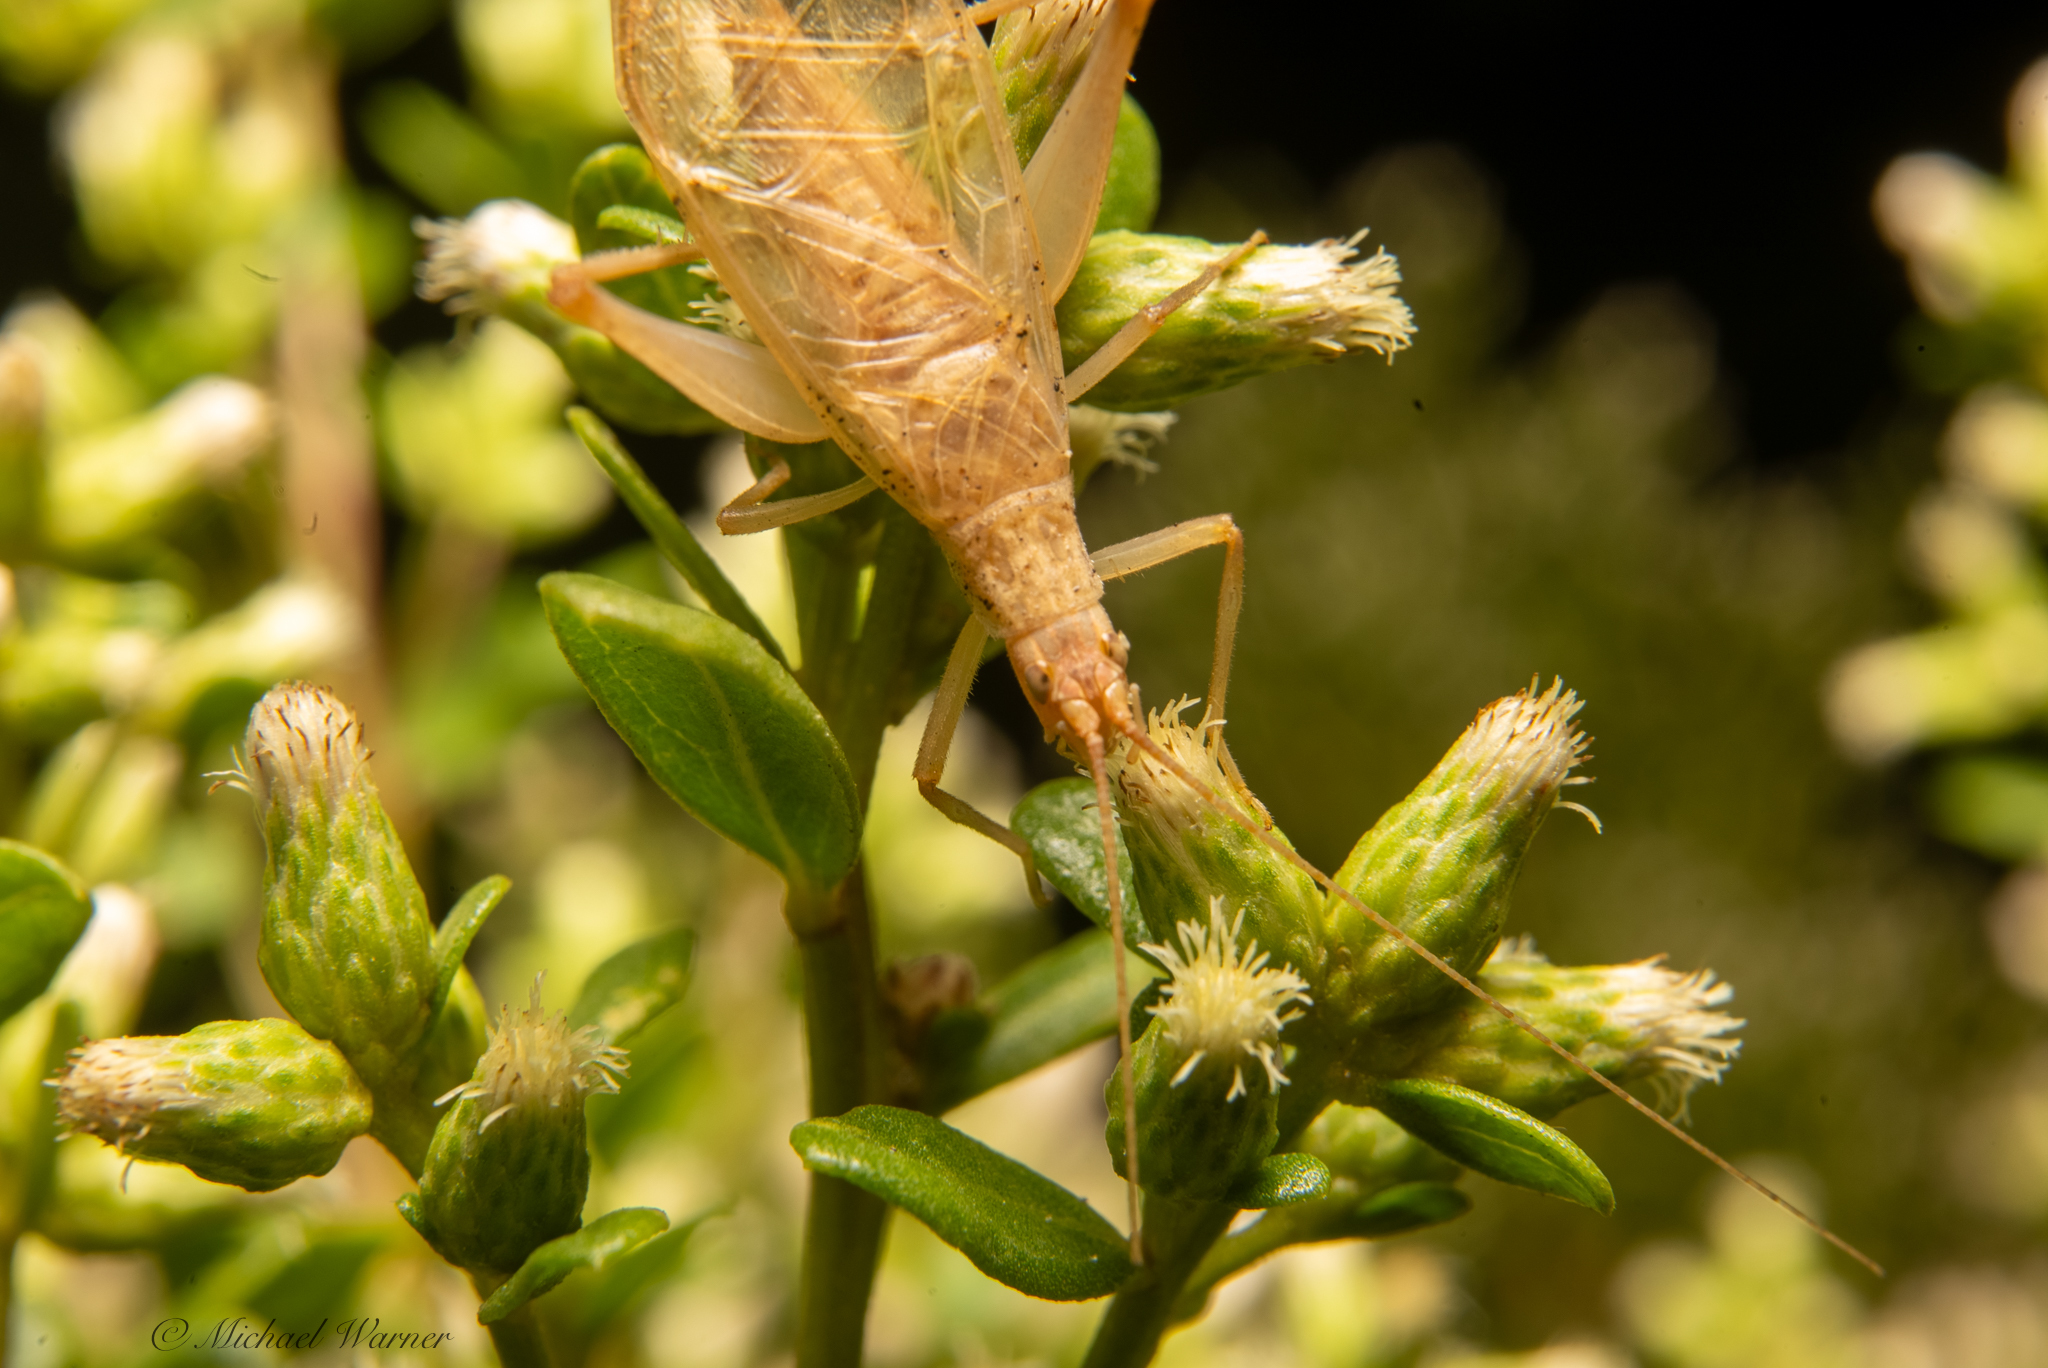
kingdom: Animalia
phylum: Arthropoda
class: Insecta
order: Orthoptera
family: Gryllidae
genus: Oecanthus
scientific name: Oecanthus californicus
